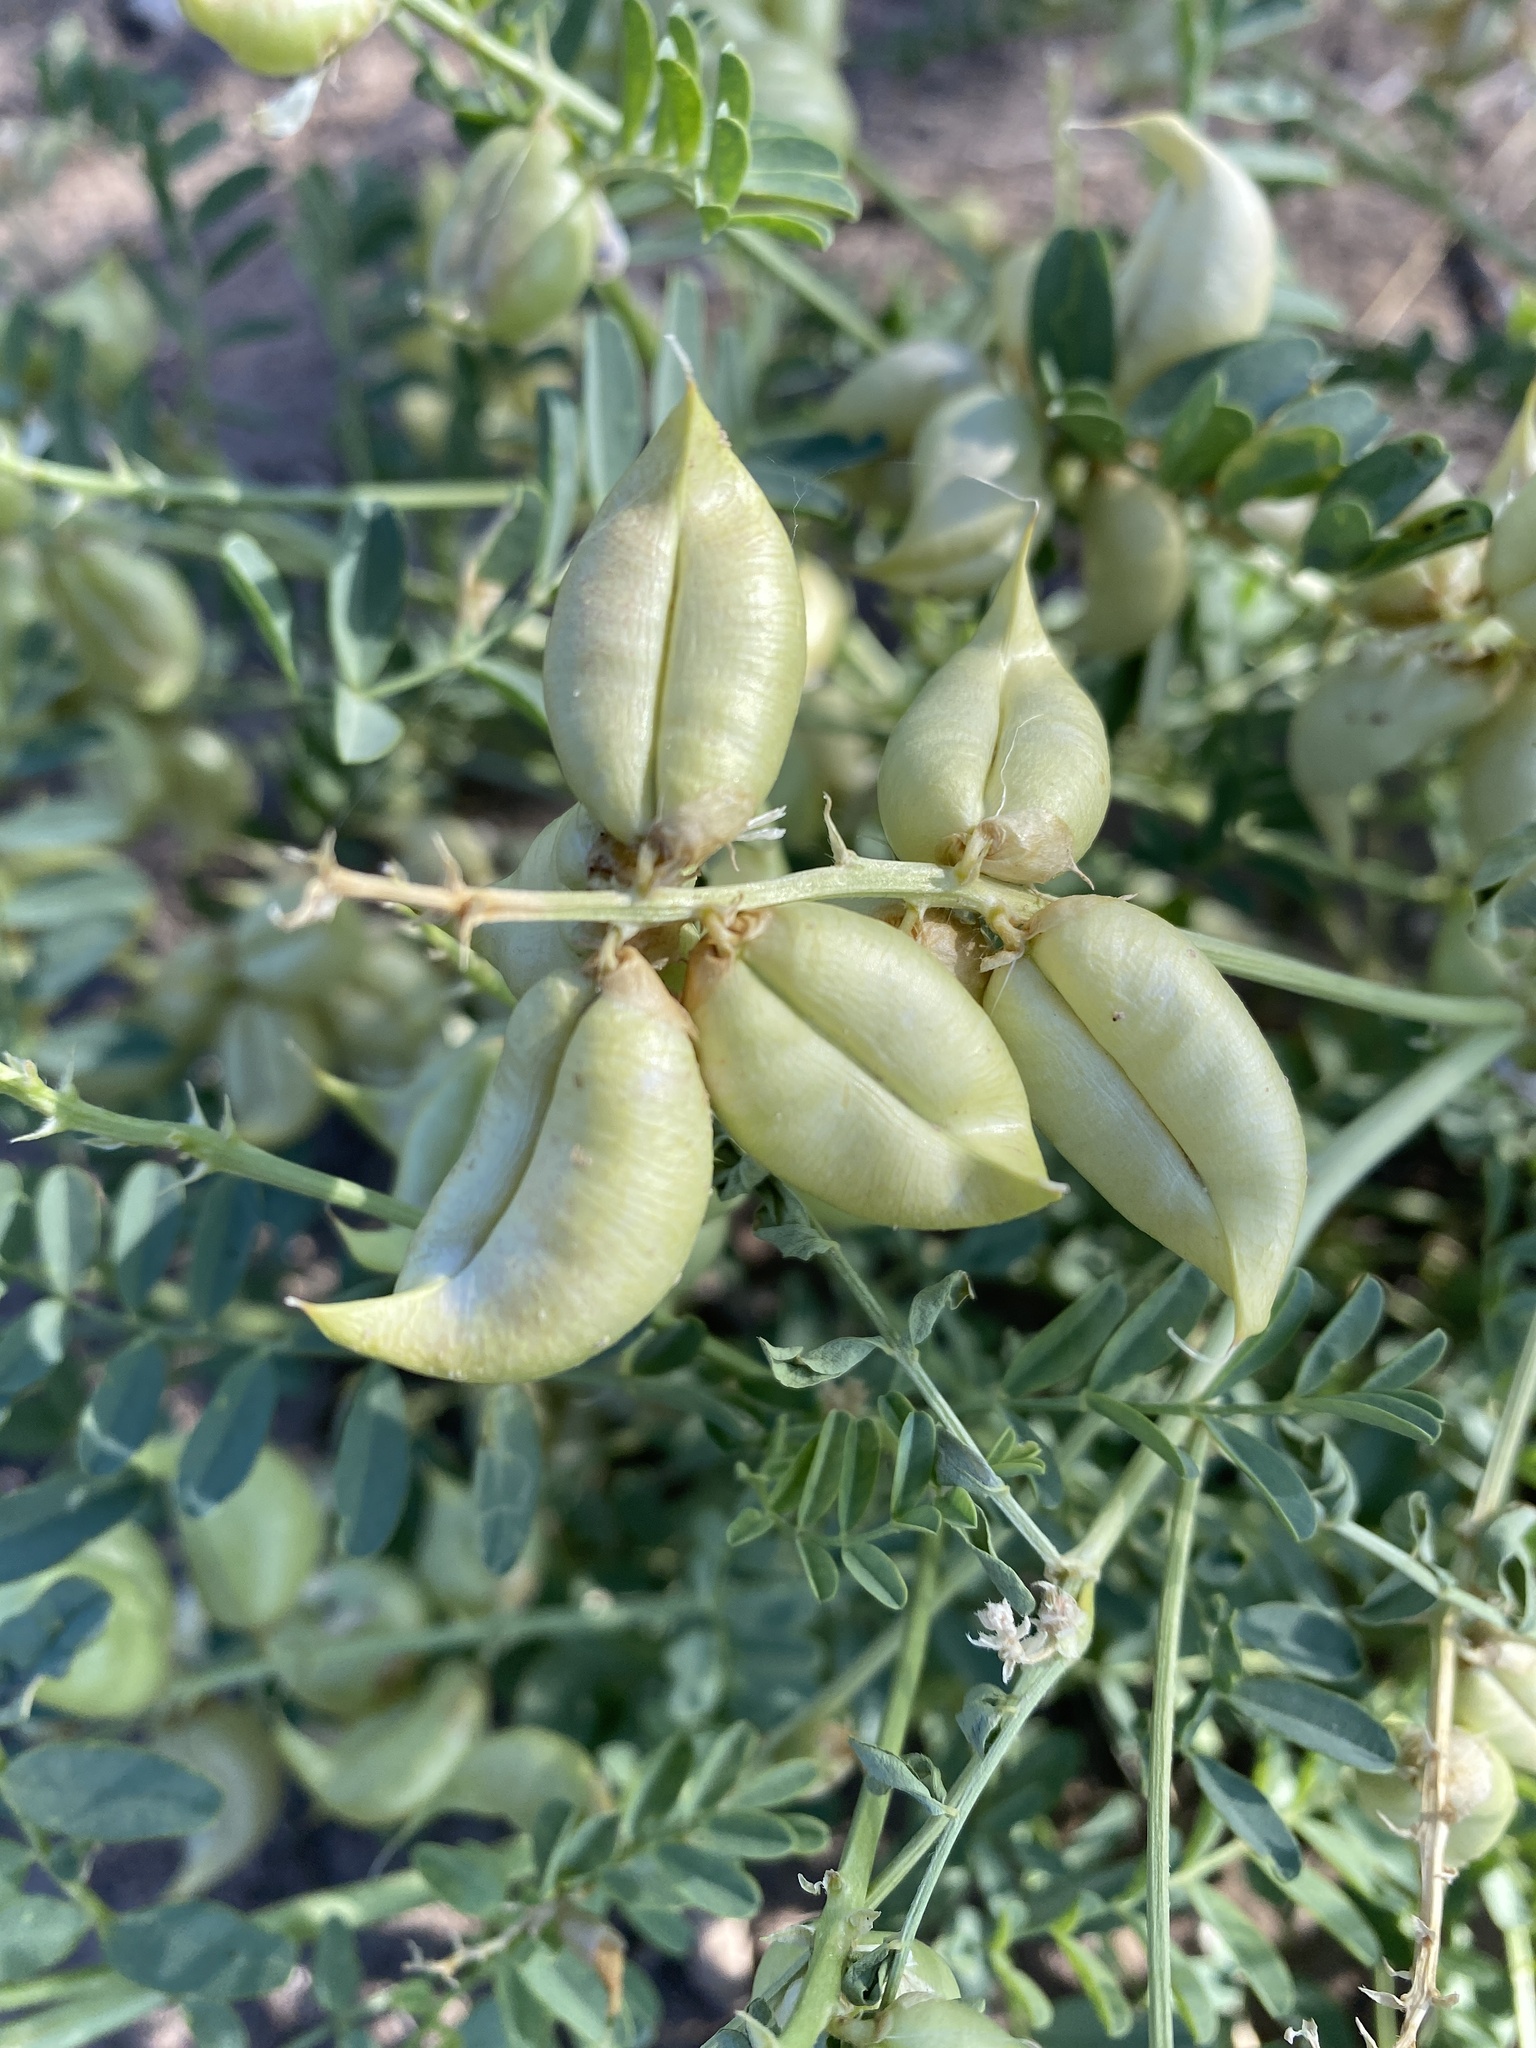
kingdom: Plantae
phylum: Tracheophyta
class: Magnoliopsida
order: Fabales
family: Fabaceae
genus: Astragalus
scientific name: Astragalus lentiginosus
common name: Freckled milkvetch
